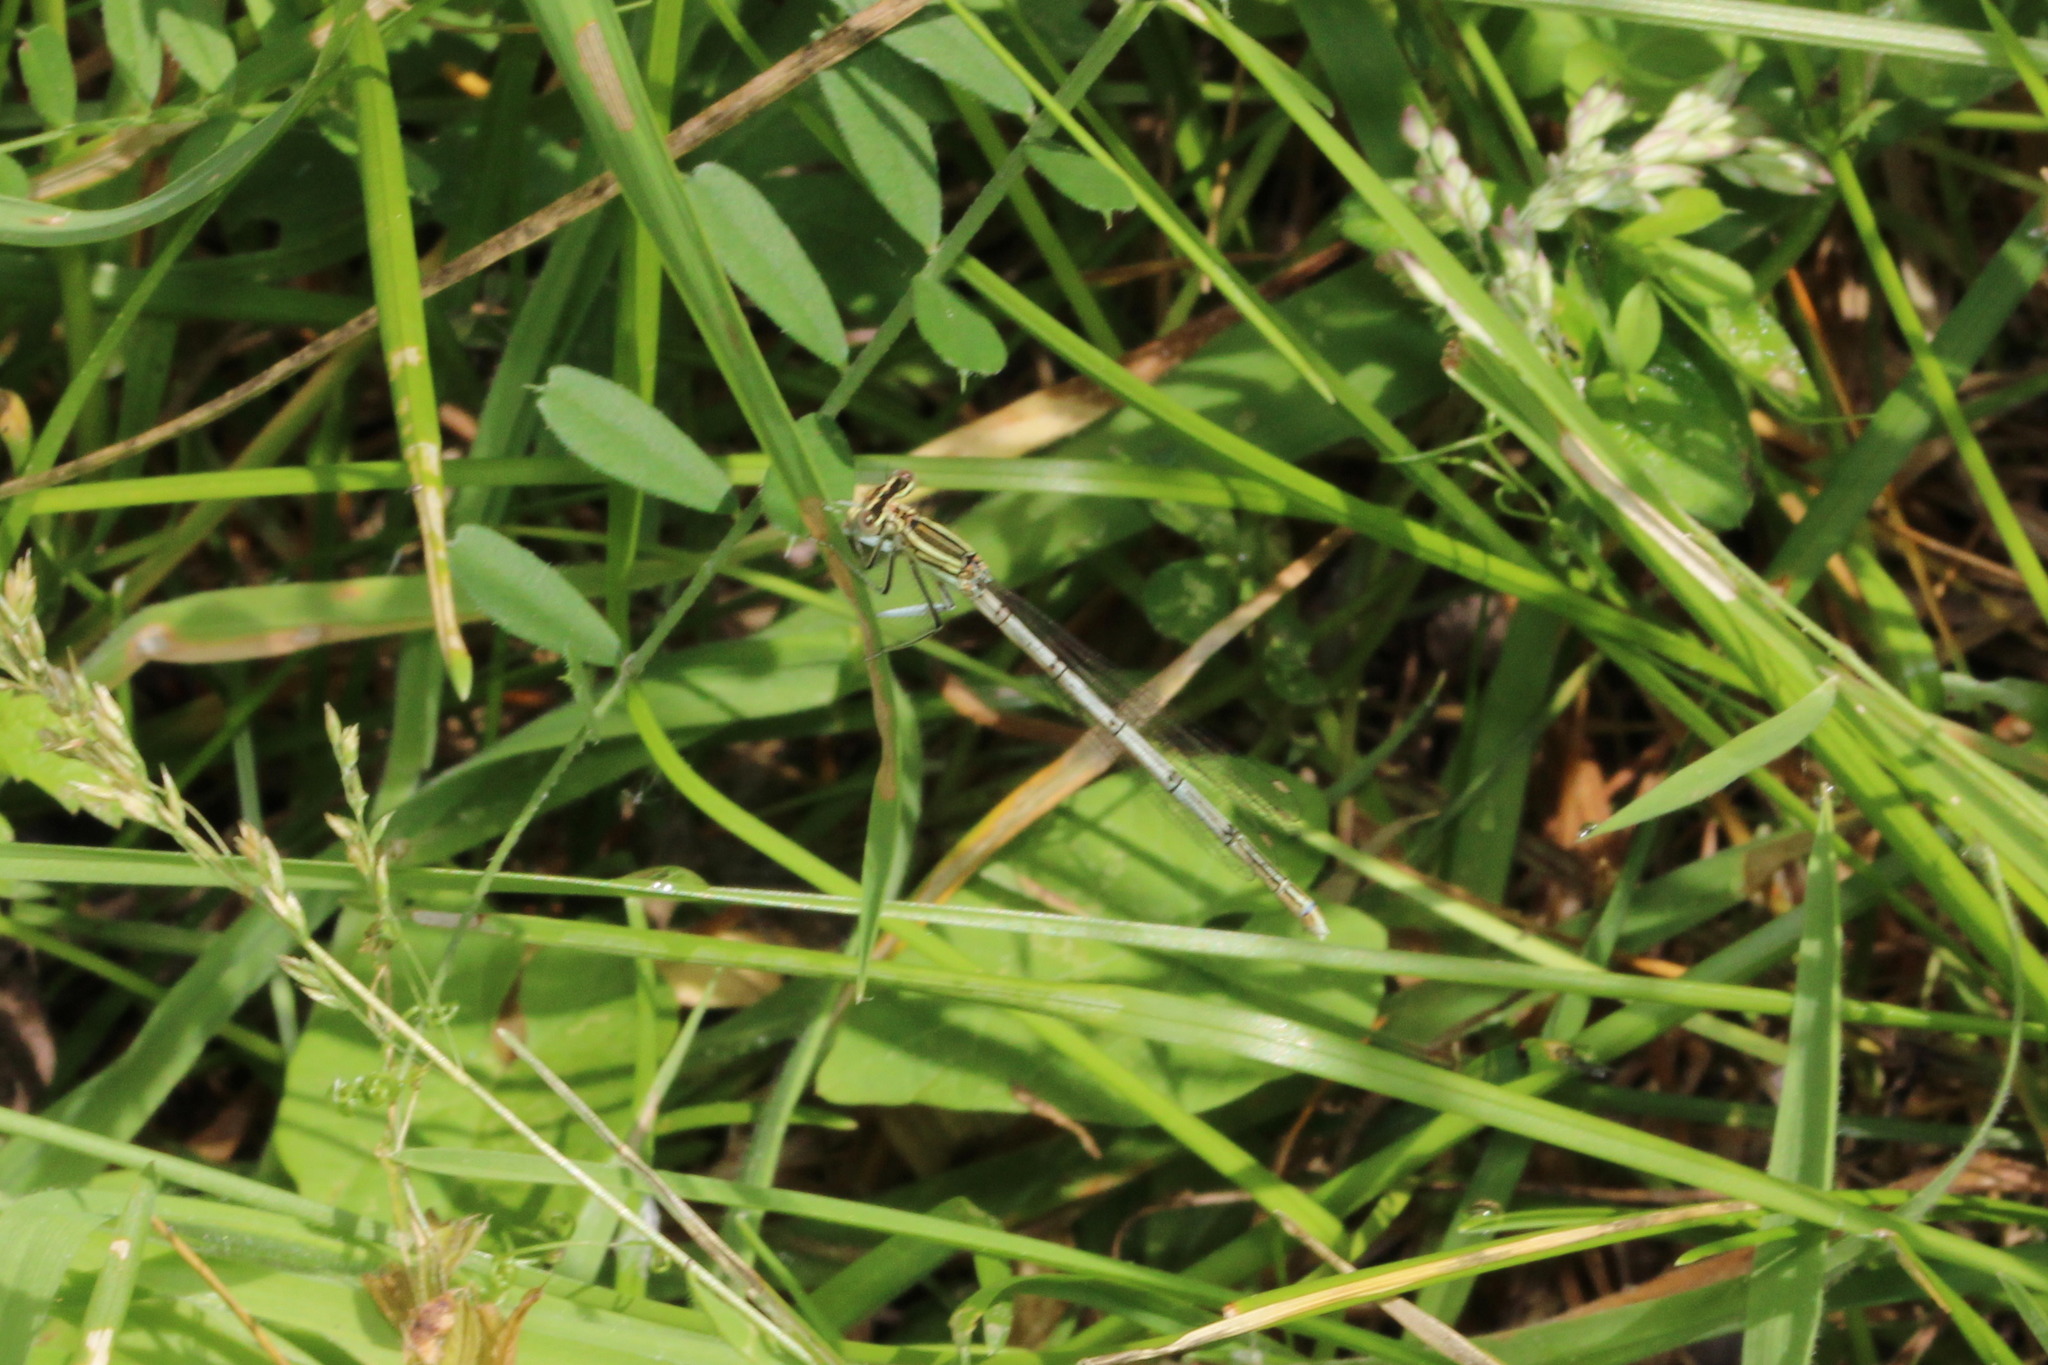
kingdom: Animalia
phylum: Arthropoda
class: Insecta
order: Odonata
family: Platycnemididae
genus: Platycnemis
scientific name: Platycnemis pennipes
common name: White-legged damselfly
